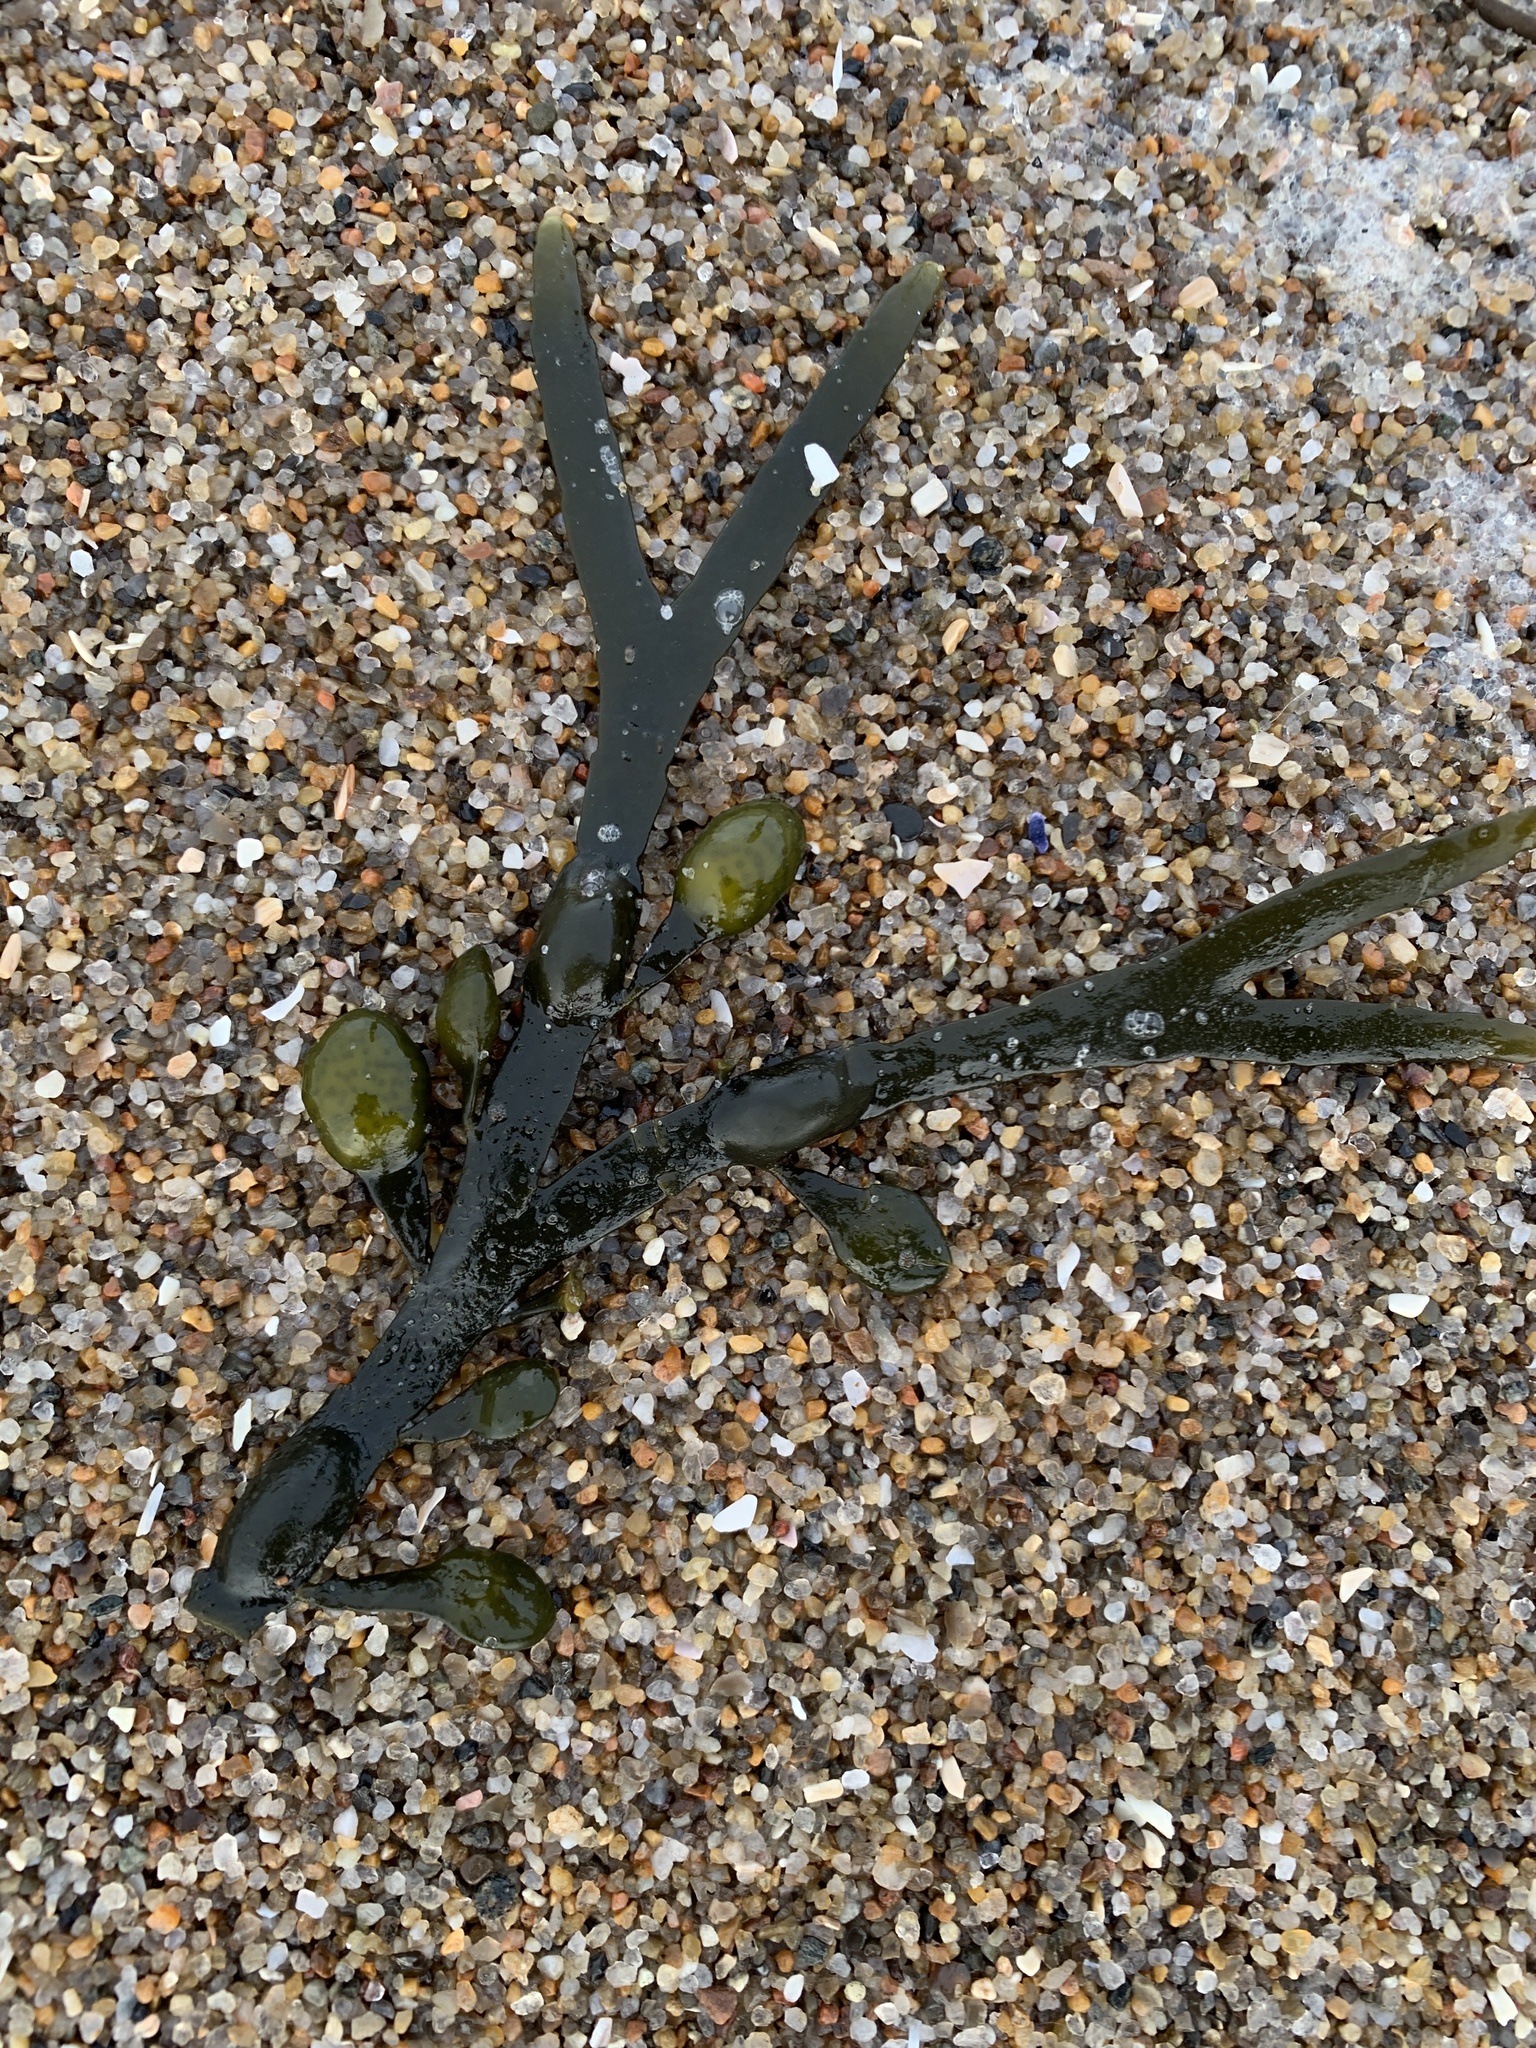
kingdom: Chromista
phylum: Ochrophyta
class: Phaeophyceae
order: Fucales
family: Fucaceae
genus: Ascophyllum
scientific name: Ascophyllum nodosum
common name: Knotted wrack
